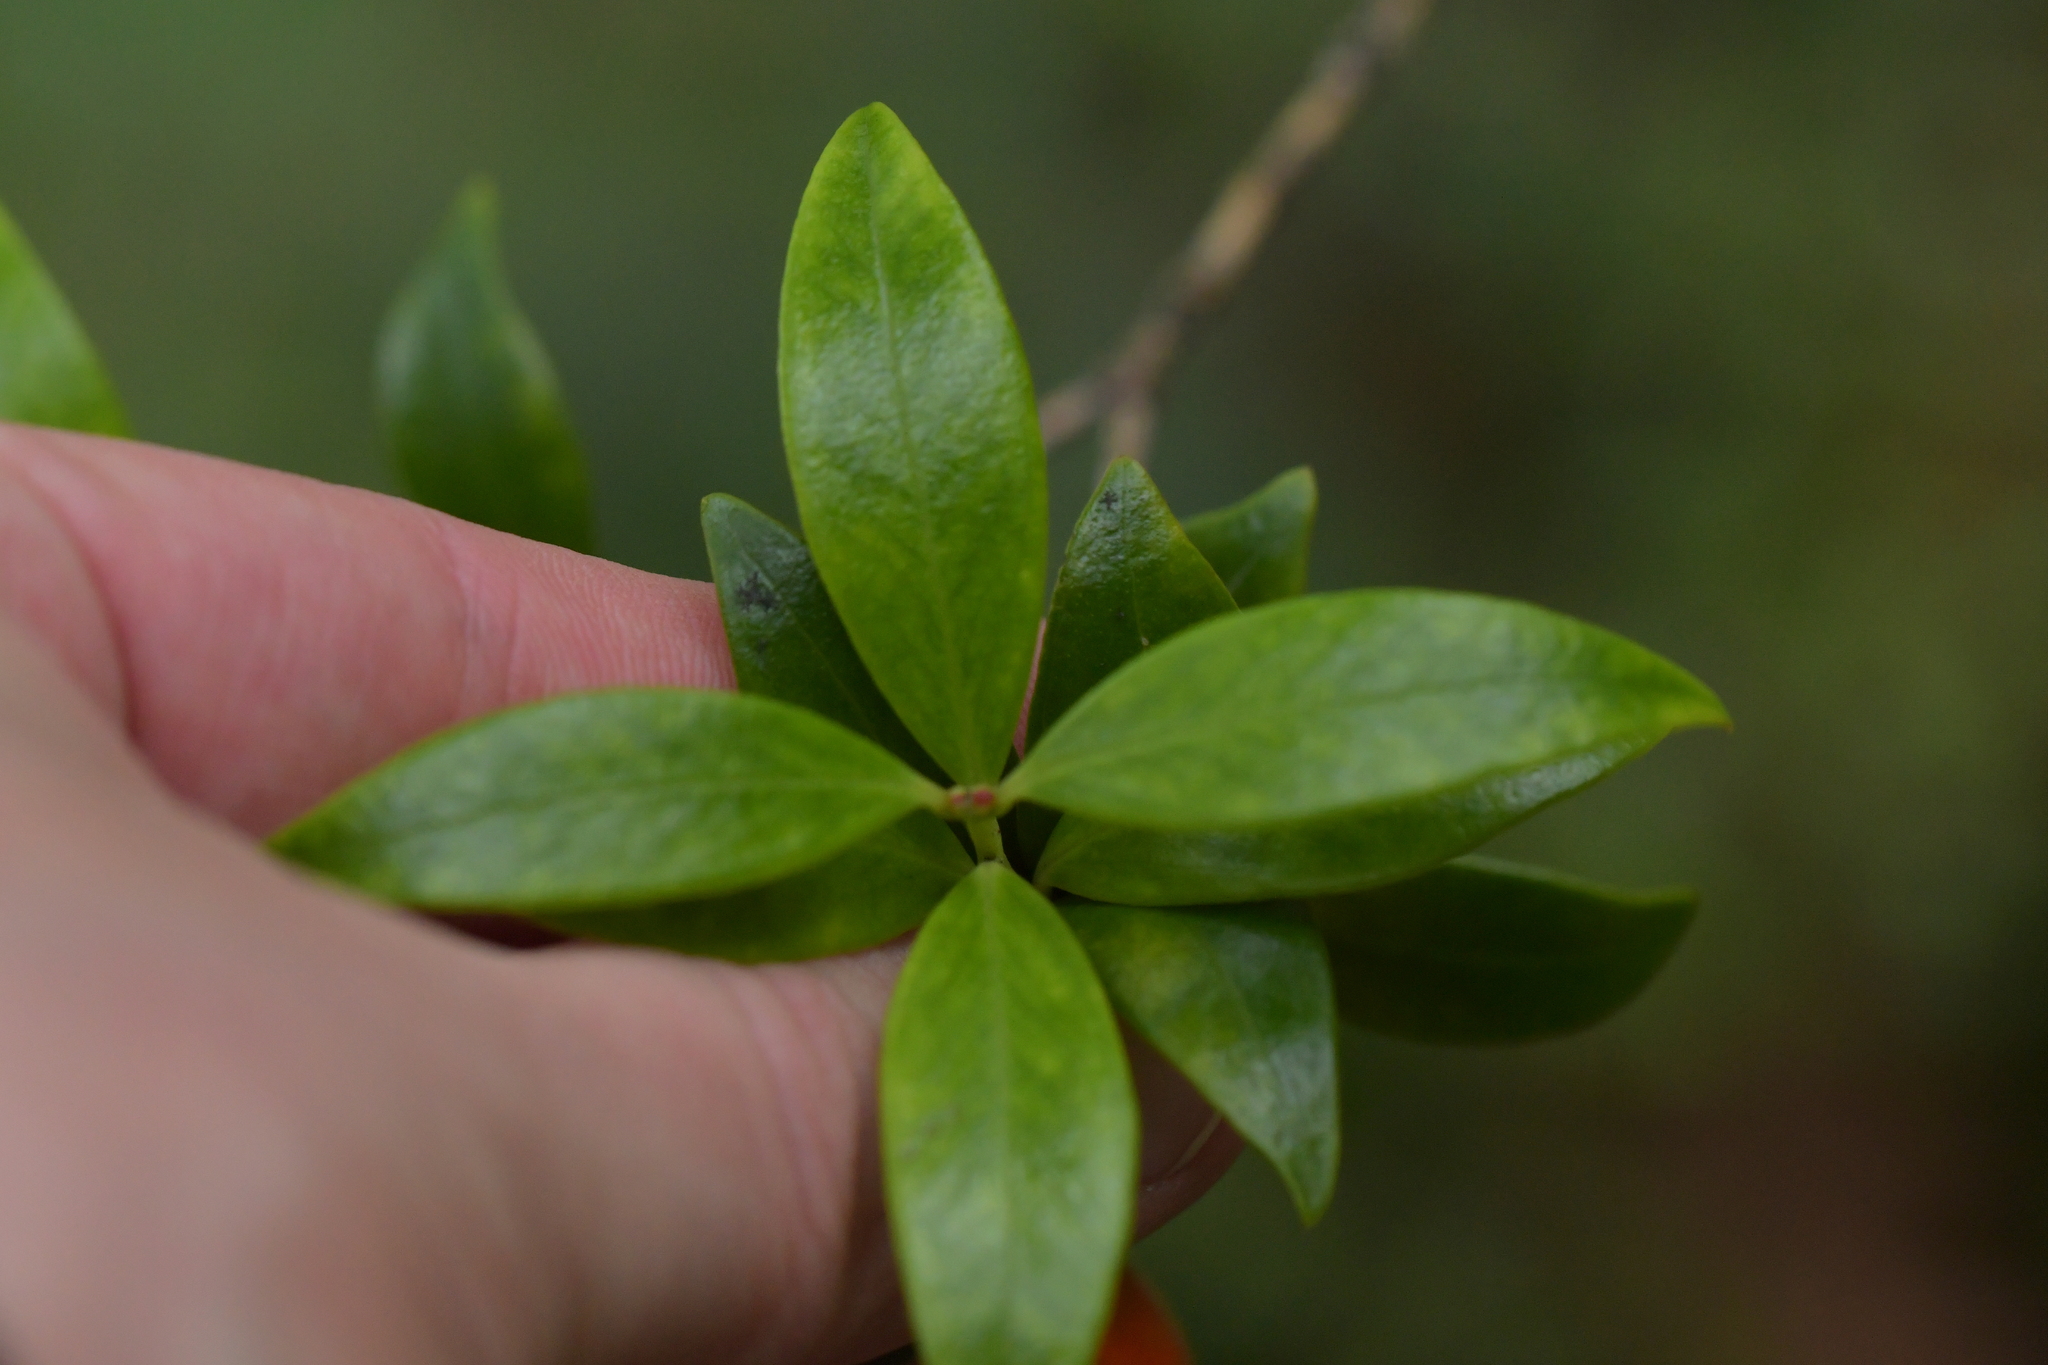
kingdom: Plantae
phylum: Tracheophyta
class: Magnoliopsida
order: Myrtales
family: Myrtaceae
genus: Metrosideros
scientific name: Metrosideros umbellata
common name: Southern rata
